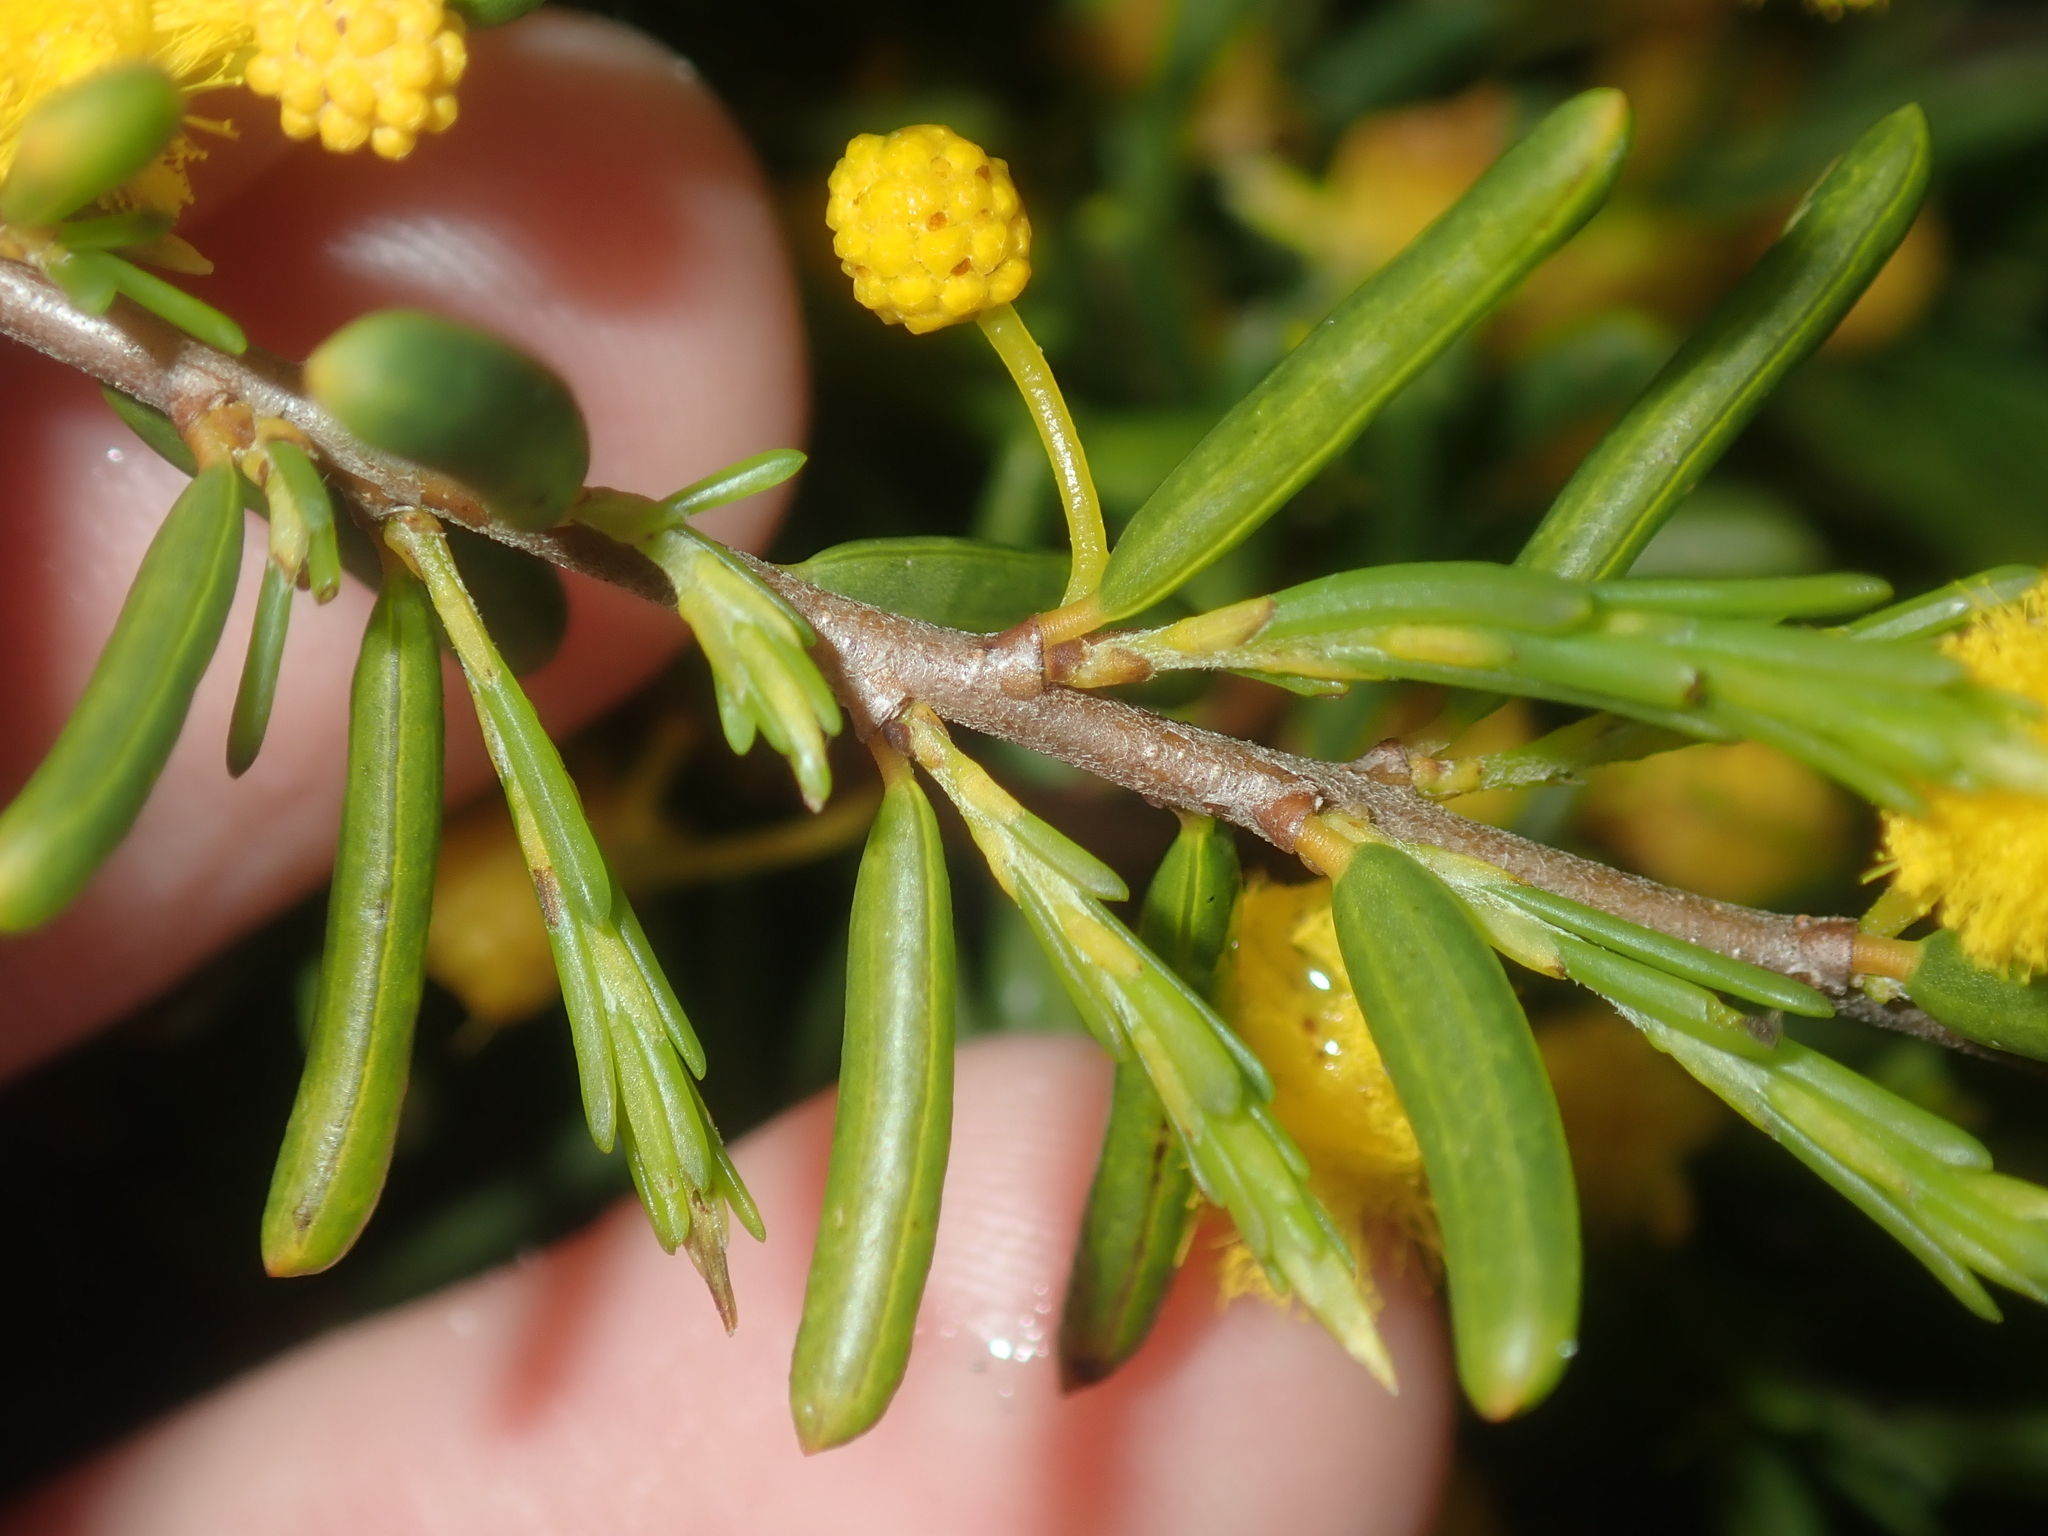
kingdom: Plantae
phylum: Tracheophyta
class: Magnoliopsida
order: Fabales
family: Fabaceae
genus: Acacia
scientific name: Acacia spathulifolia
